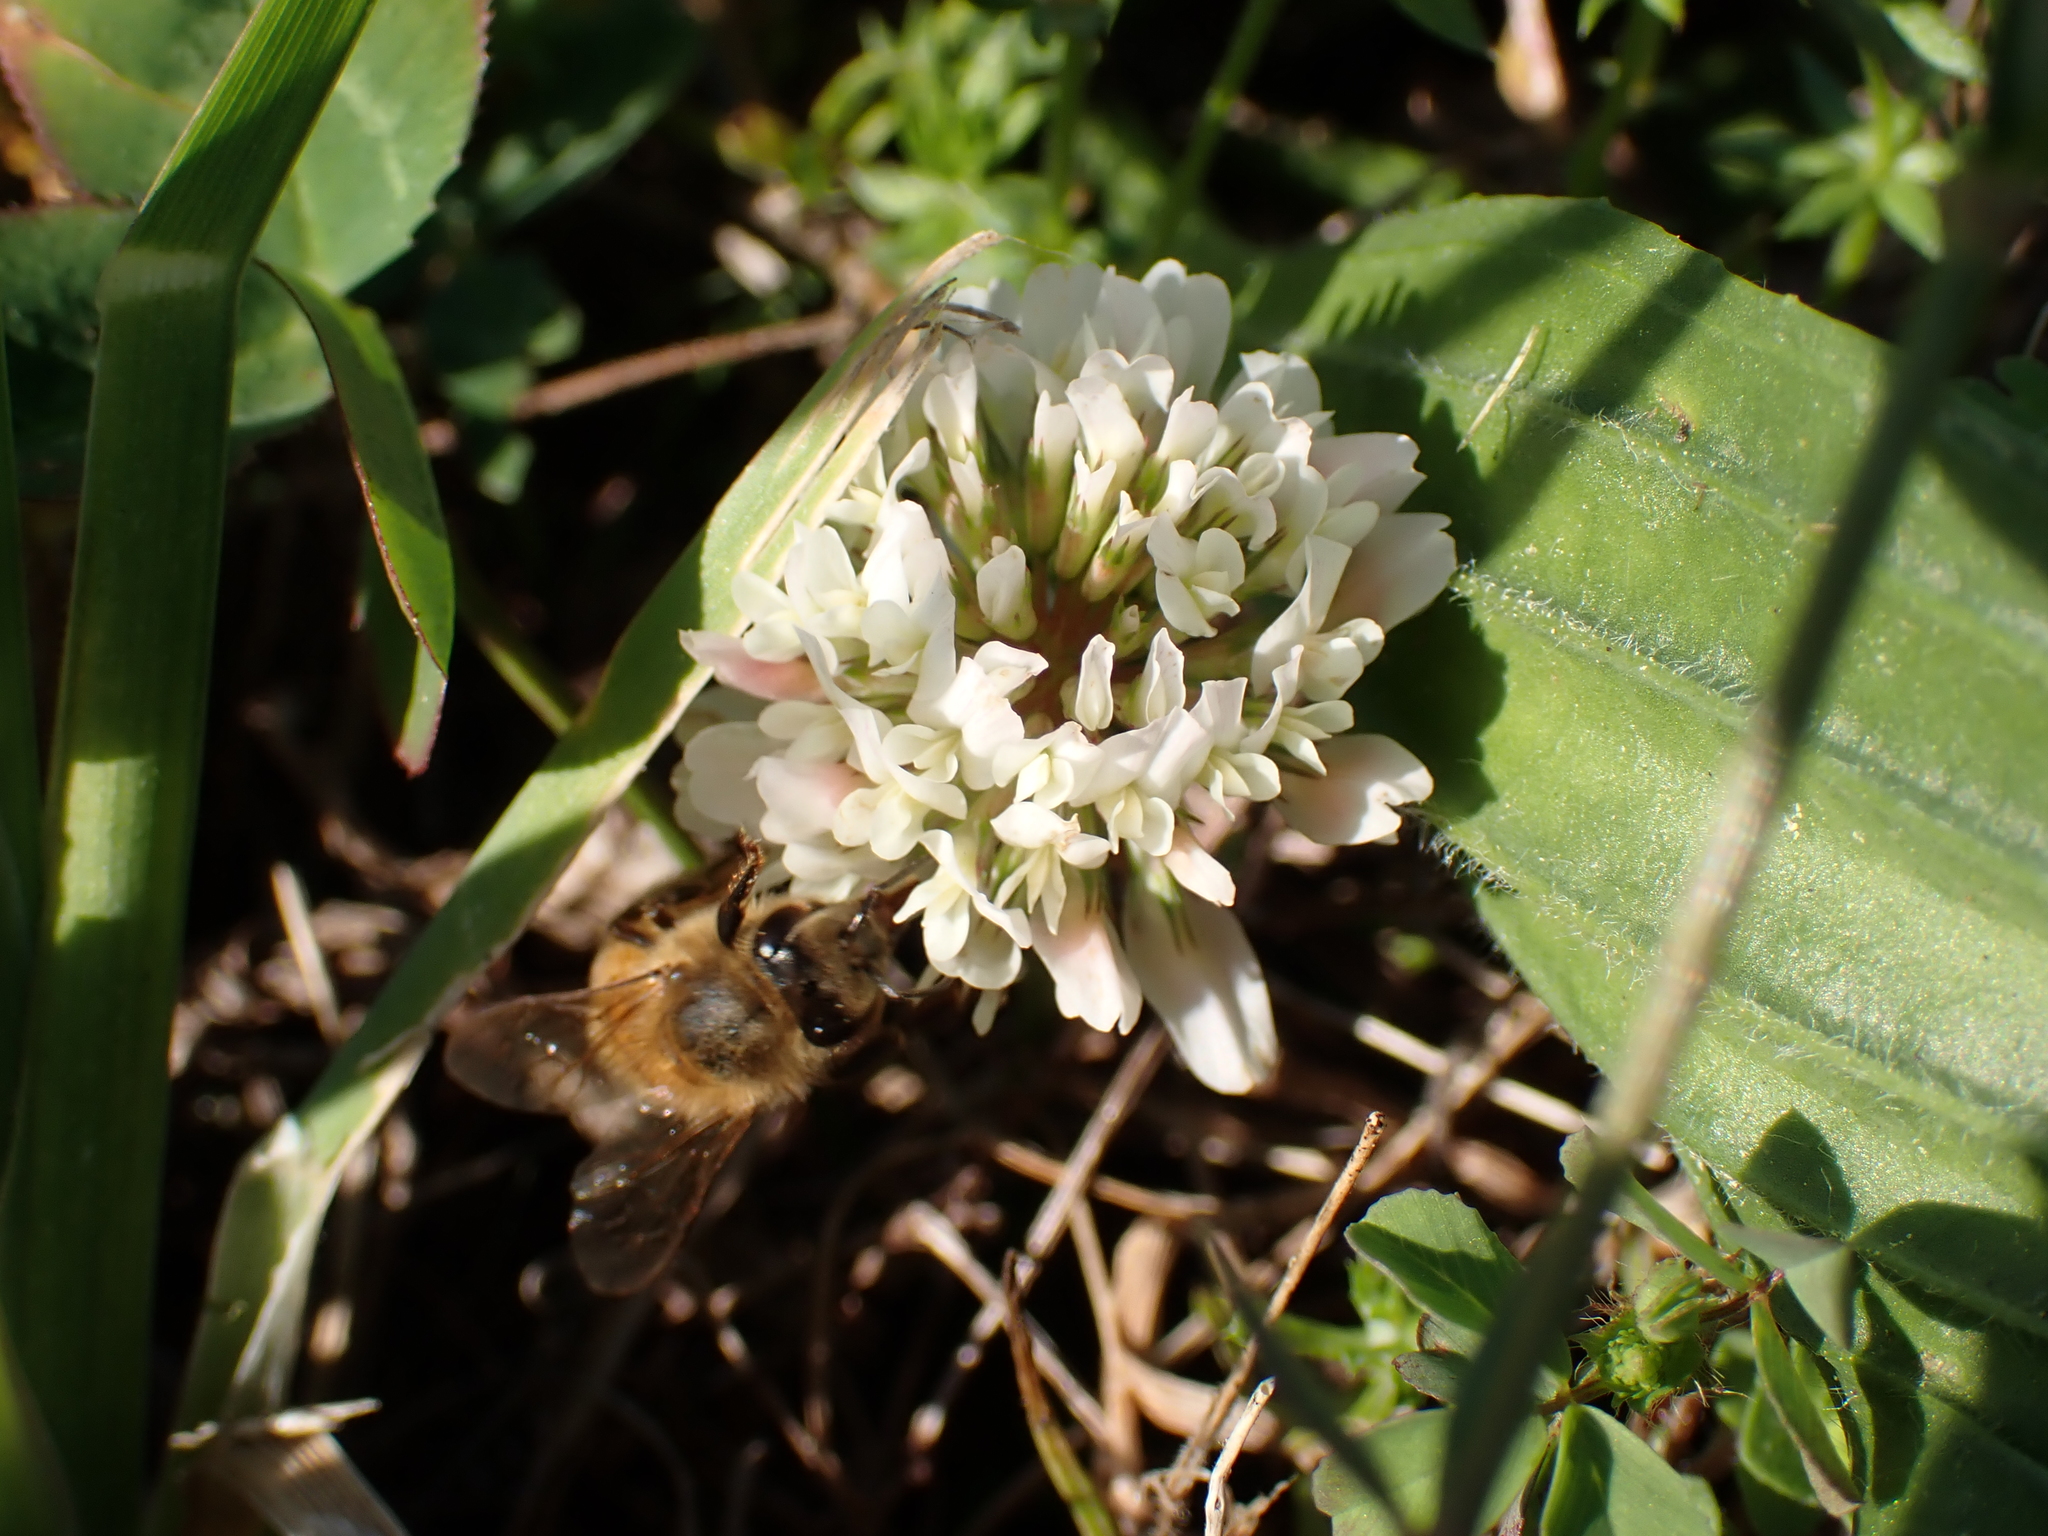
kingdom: Animalia
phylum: Arthropoda
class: Insecta
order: Hymenoptera
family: Apidae
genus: Apis
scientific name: Apis mellifera
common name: Honey bee
